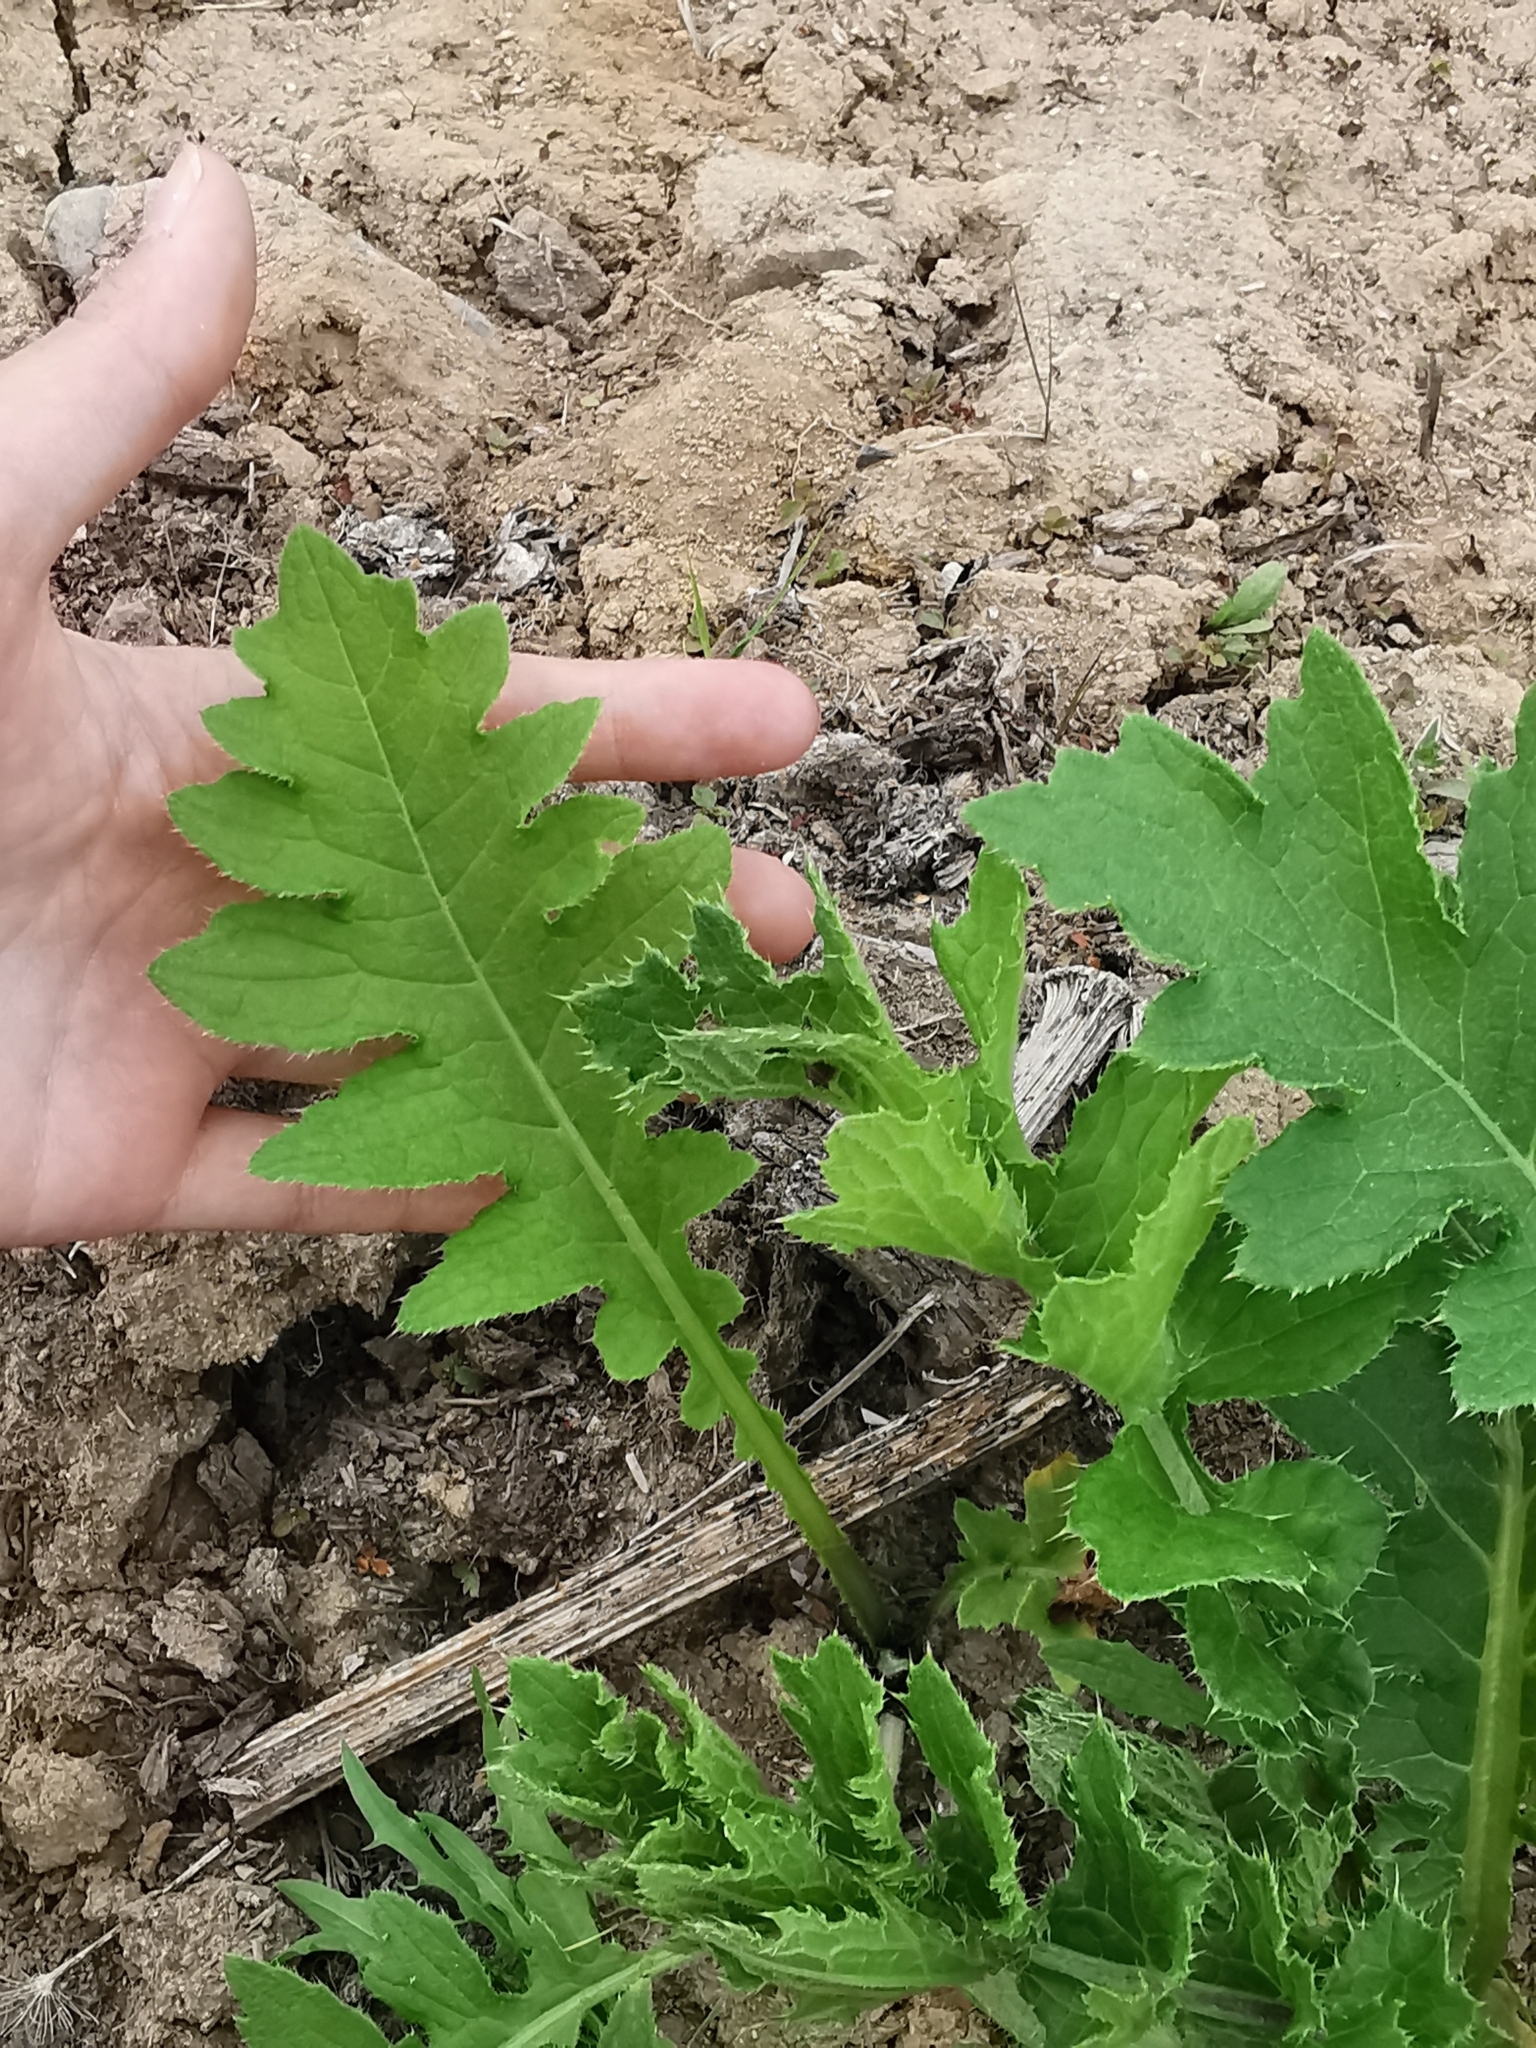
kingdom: Plantae
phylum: Tracheophyta
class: Magnoliopsida
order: Asterales
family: Asteraceae
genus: Carduus
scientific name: Carduus crispus
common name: Welted thistle
